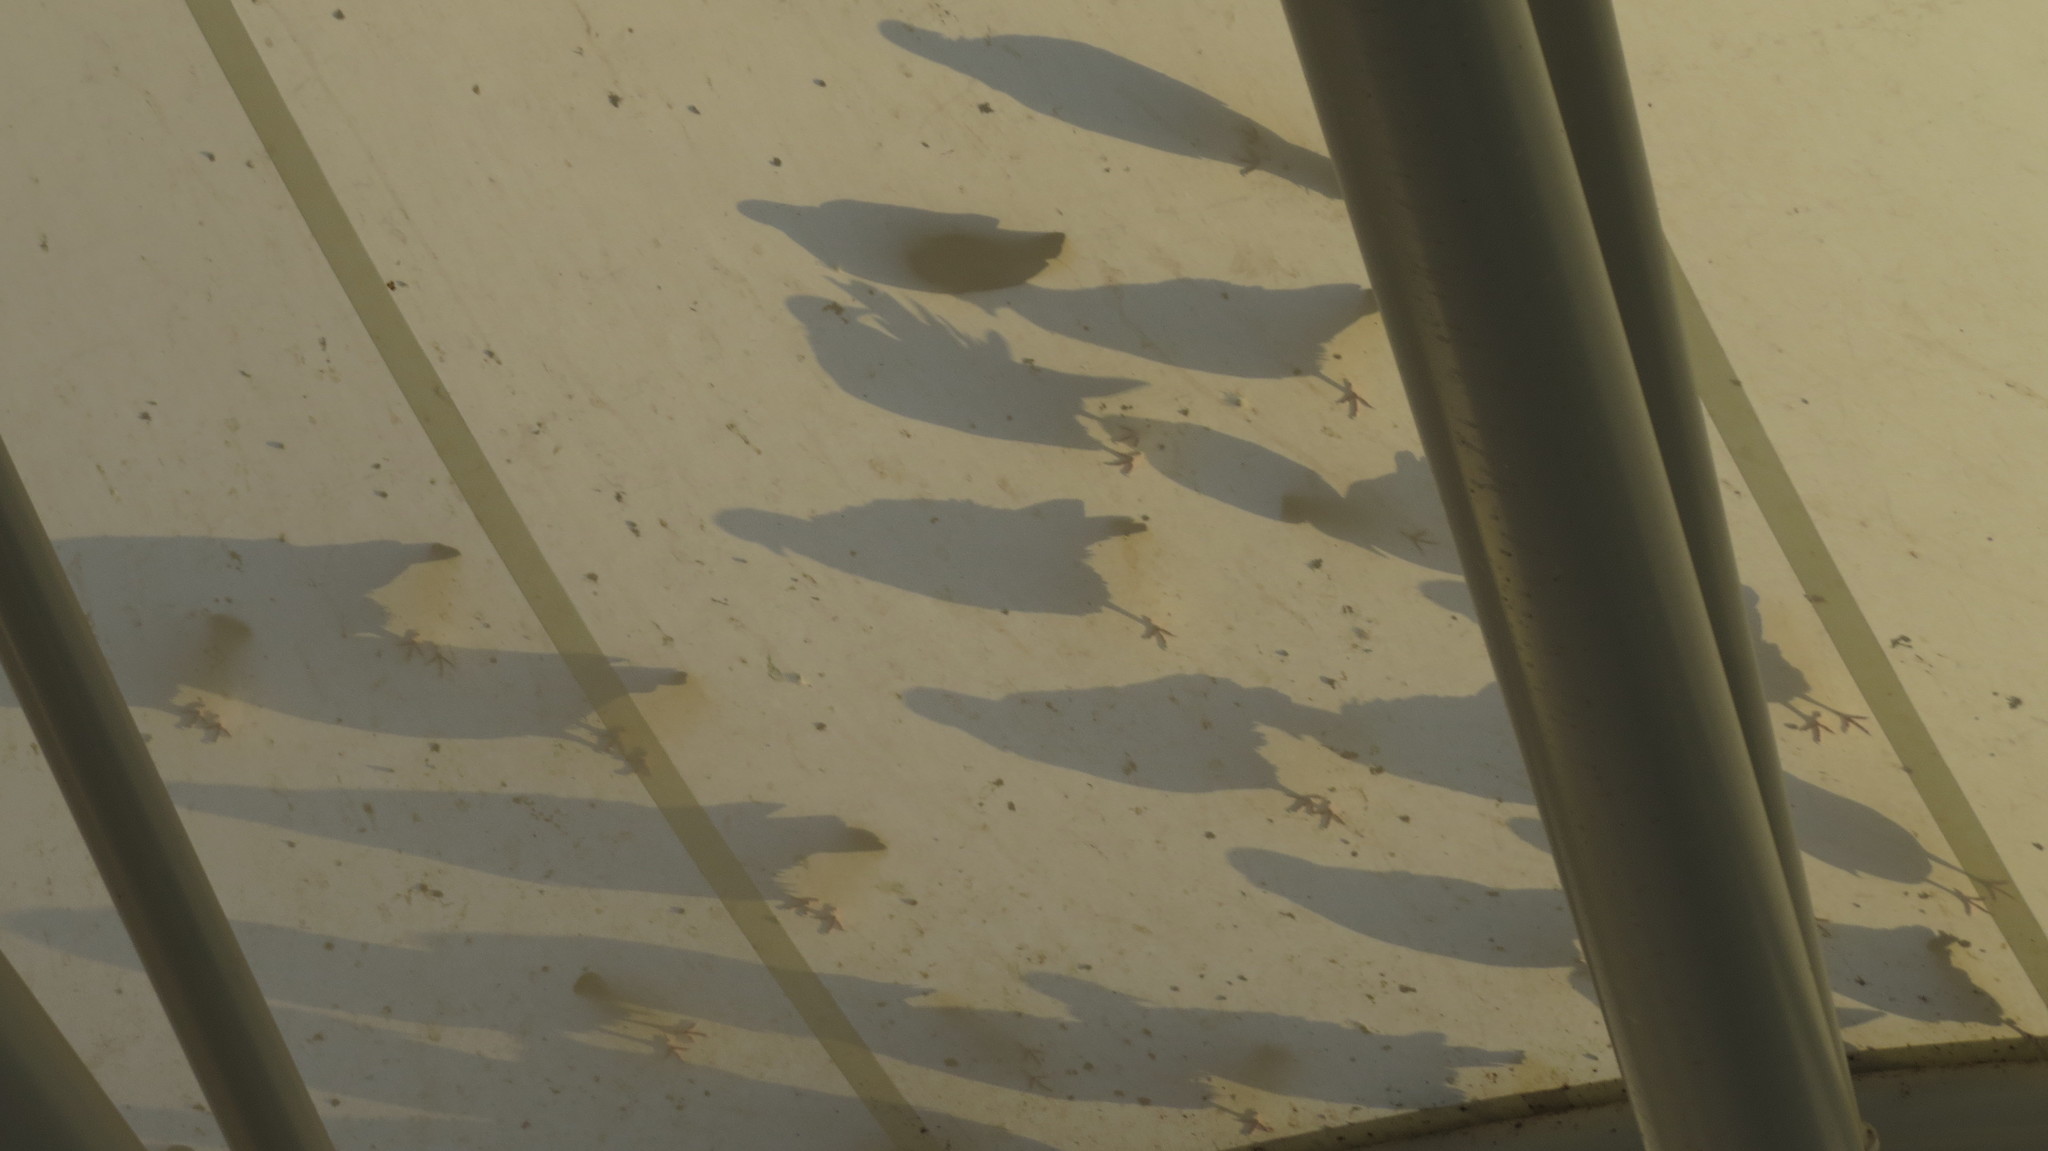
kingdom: Animalia
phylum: Chordata
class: Aves
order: Columbiformes
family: Columbidae
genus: Columba
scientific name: Columba livia
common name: Rock pigeon
